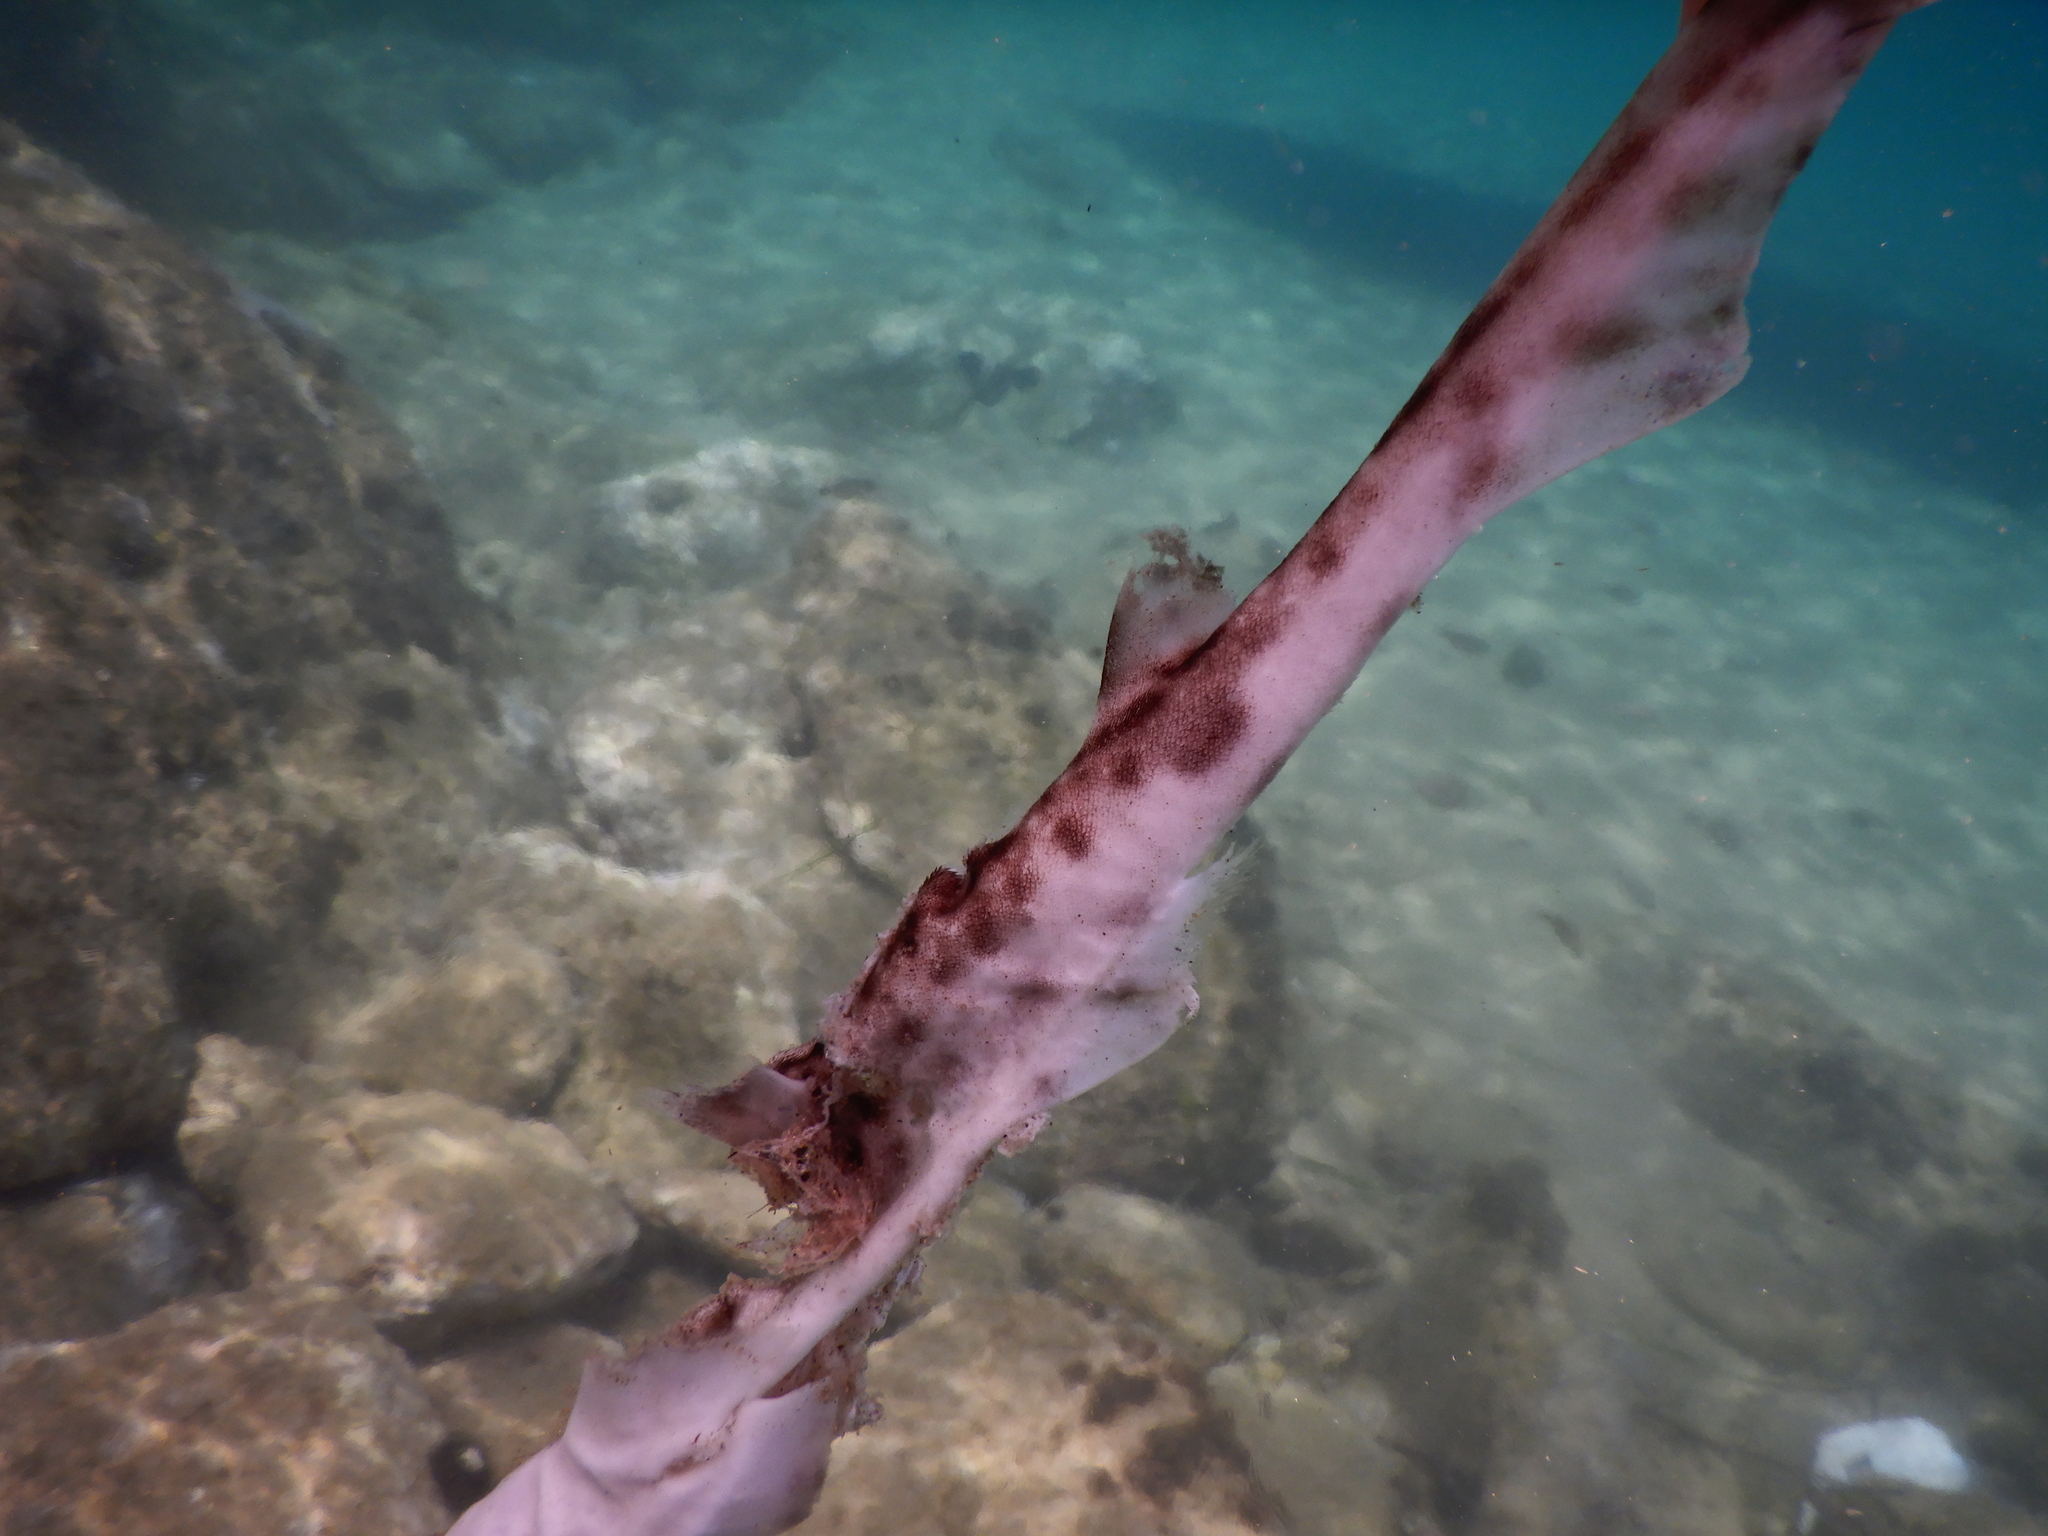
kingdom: Animalia
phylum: Chordata
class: Elasmobranchii
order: Carcharhiniformes
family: Scyliorhinidae
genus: Scyliorhinus
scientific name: Scyliorhinus canicula
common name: Lesser spotted dogfish
